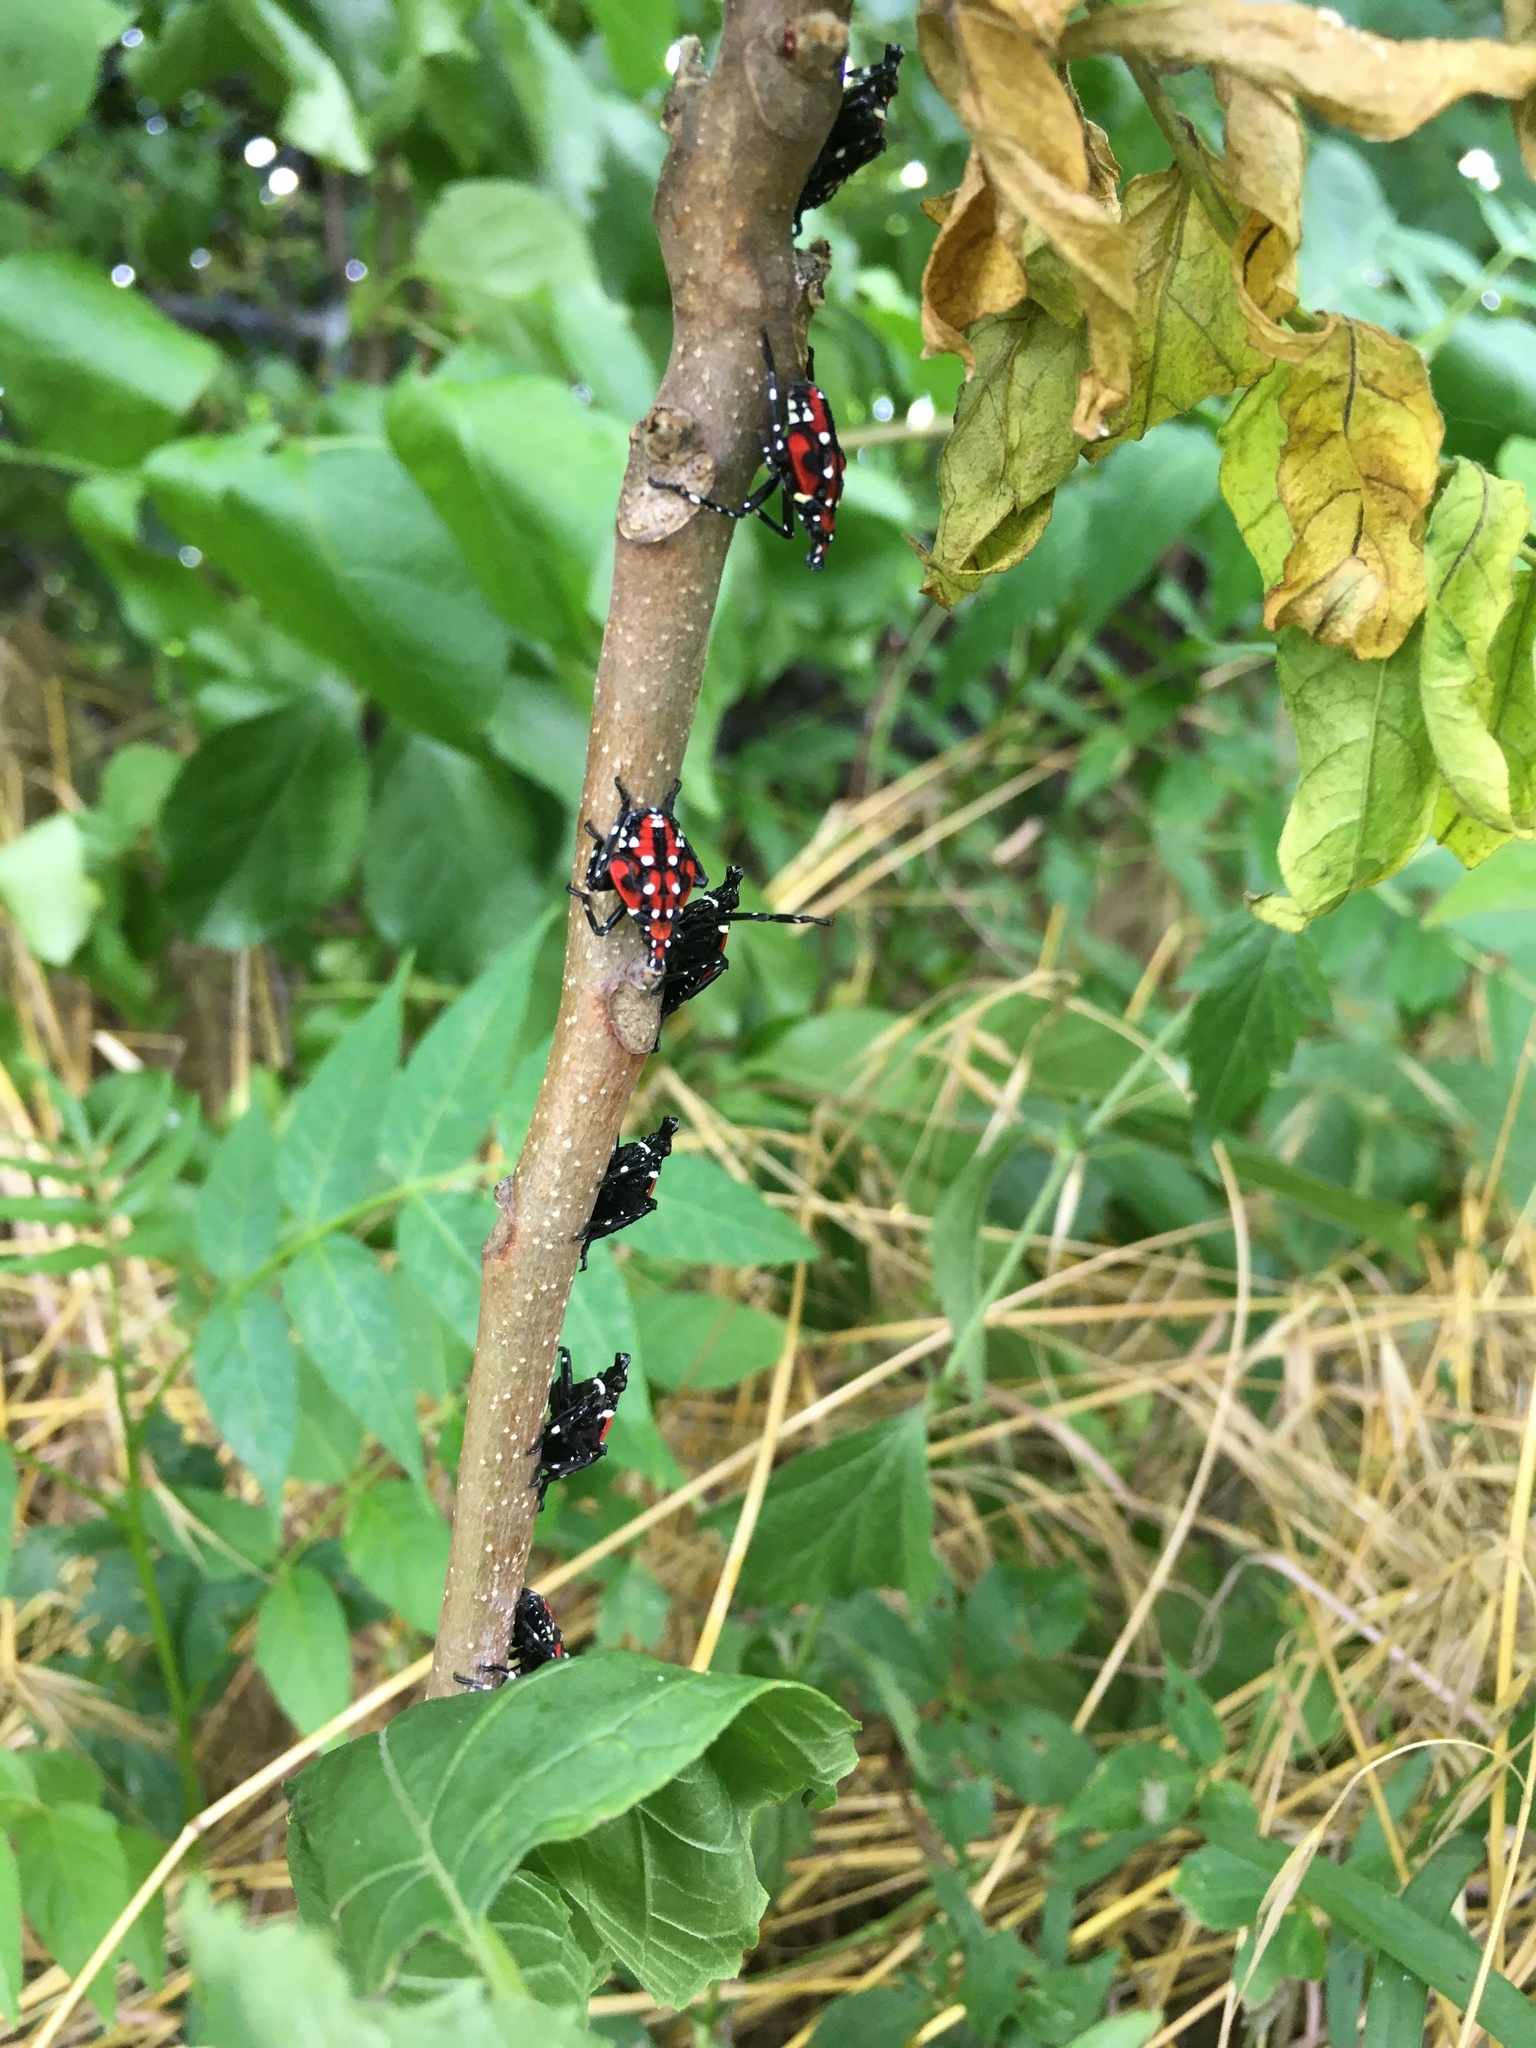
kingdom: Animalia
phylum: Arthropoda
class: Insecta
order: Hemiptera
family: Fulgoridae
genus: Lycorma
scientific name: Lycorma delicatula
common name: Spotted lanternfly
